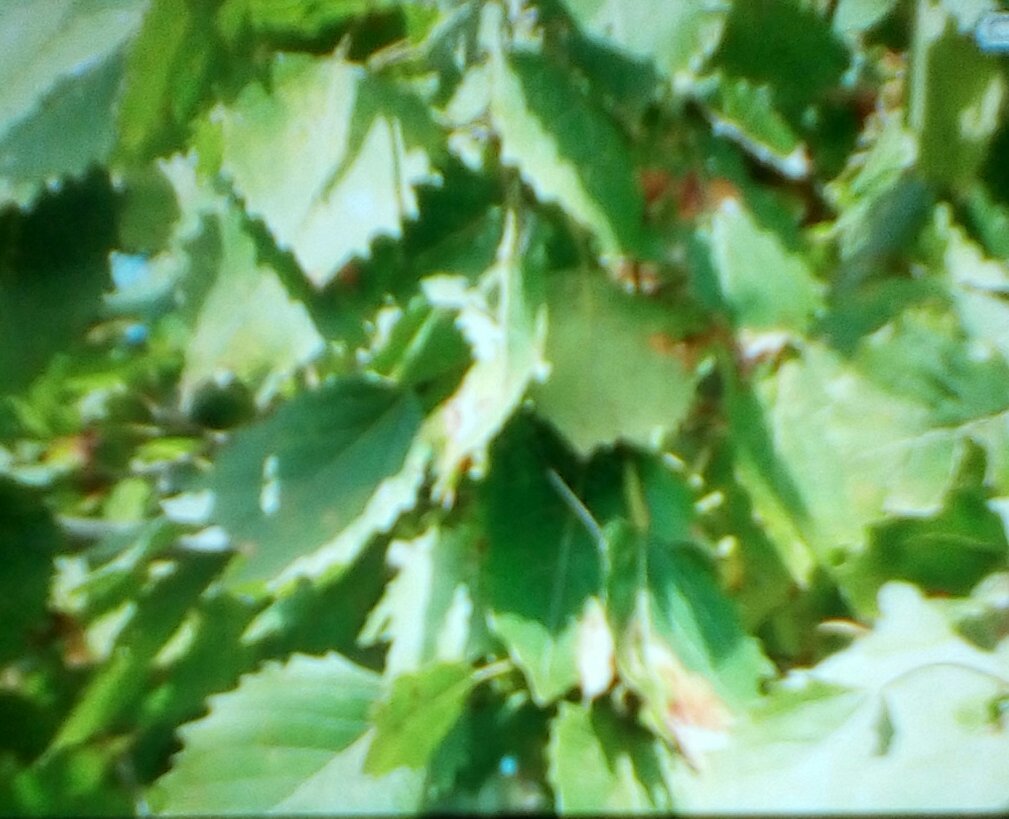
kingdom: Plantae
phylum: Tracheophyta
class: Magnoliopsida
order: Malpighiales
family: Salicaceae
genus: Populus
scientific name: Populus grandidentata
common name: Bigtooth aspen
